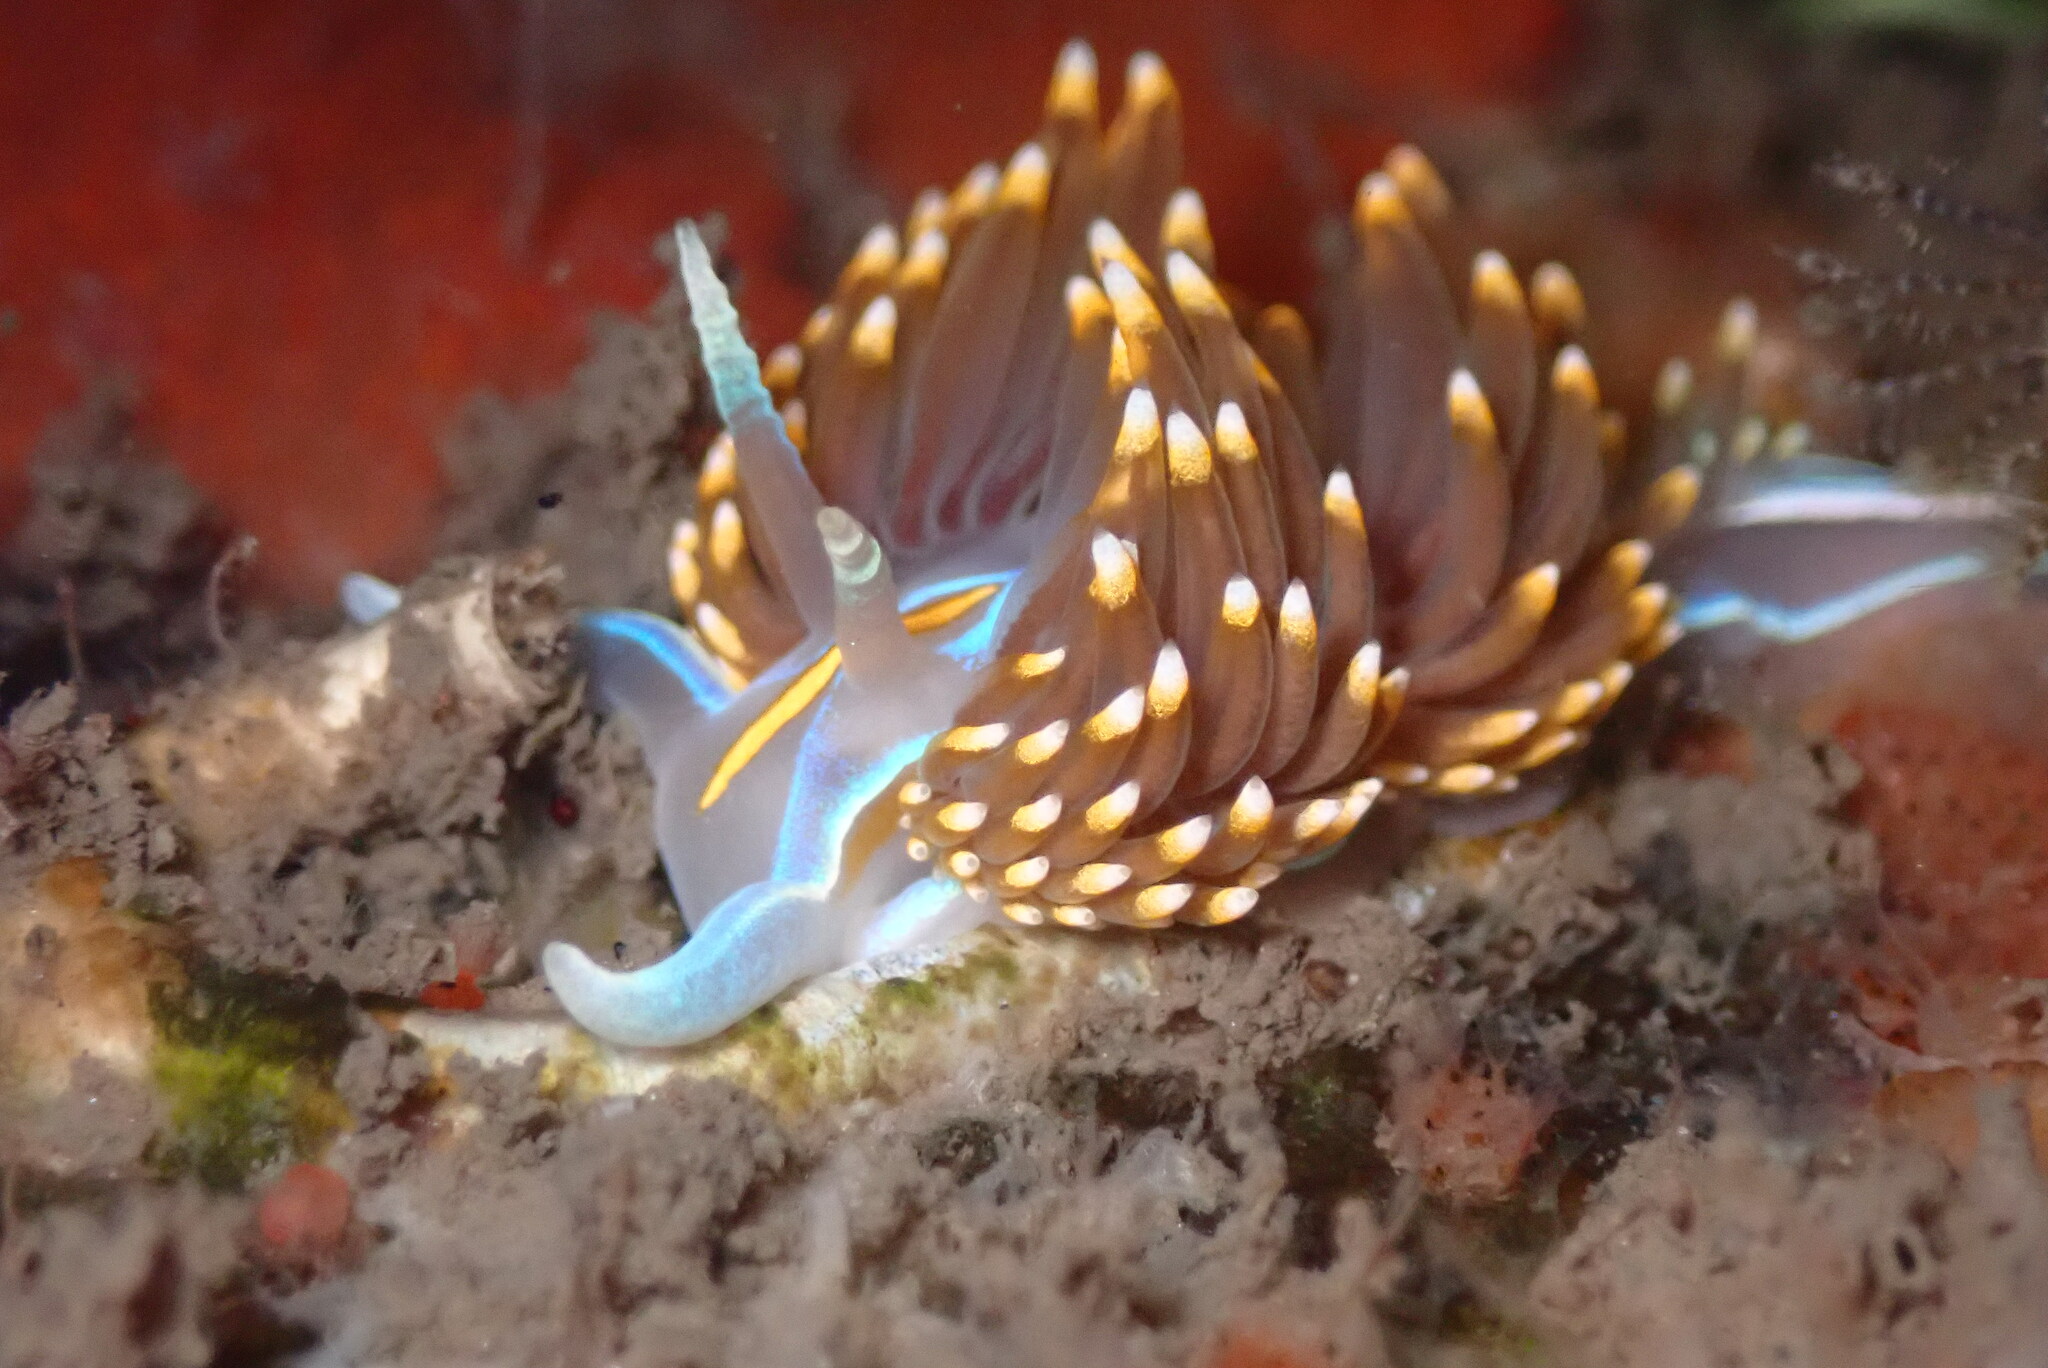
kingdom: Animalia
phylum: Mollusca
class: Gastropoda
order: Nudibranchia
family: Myrrhinidae
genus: Hermissenda
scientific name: Hermissenda opalescens
